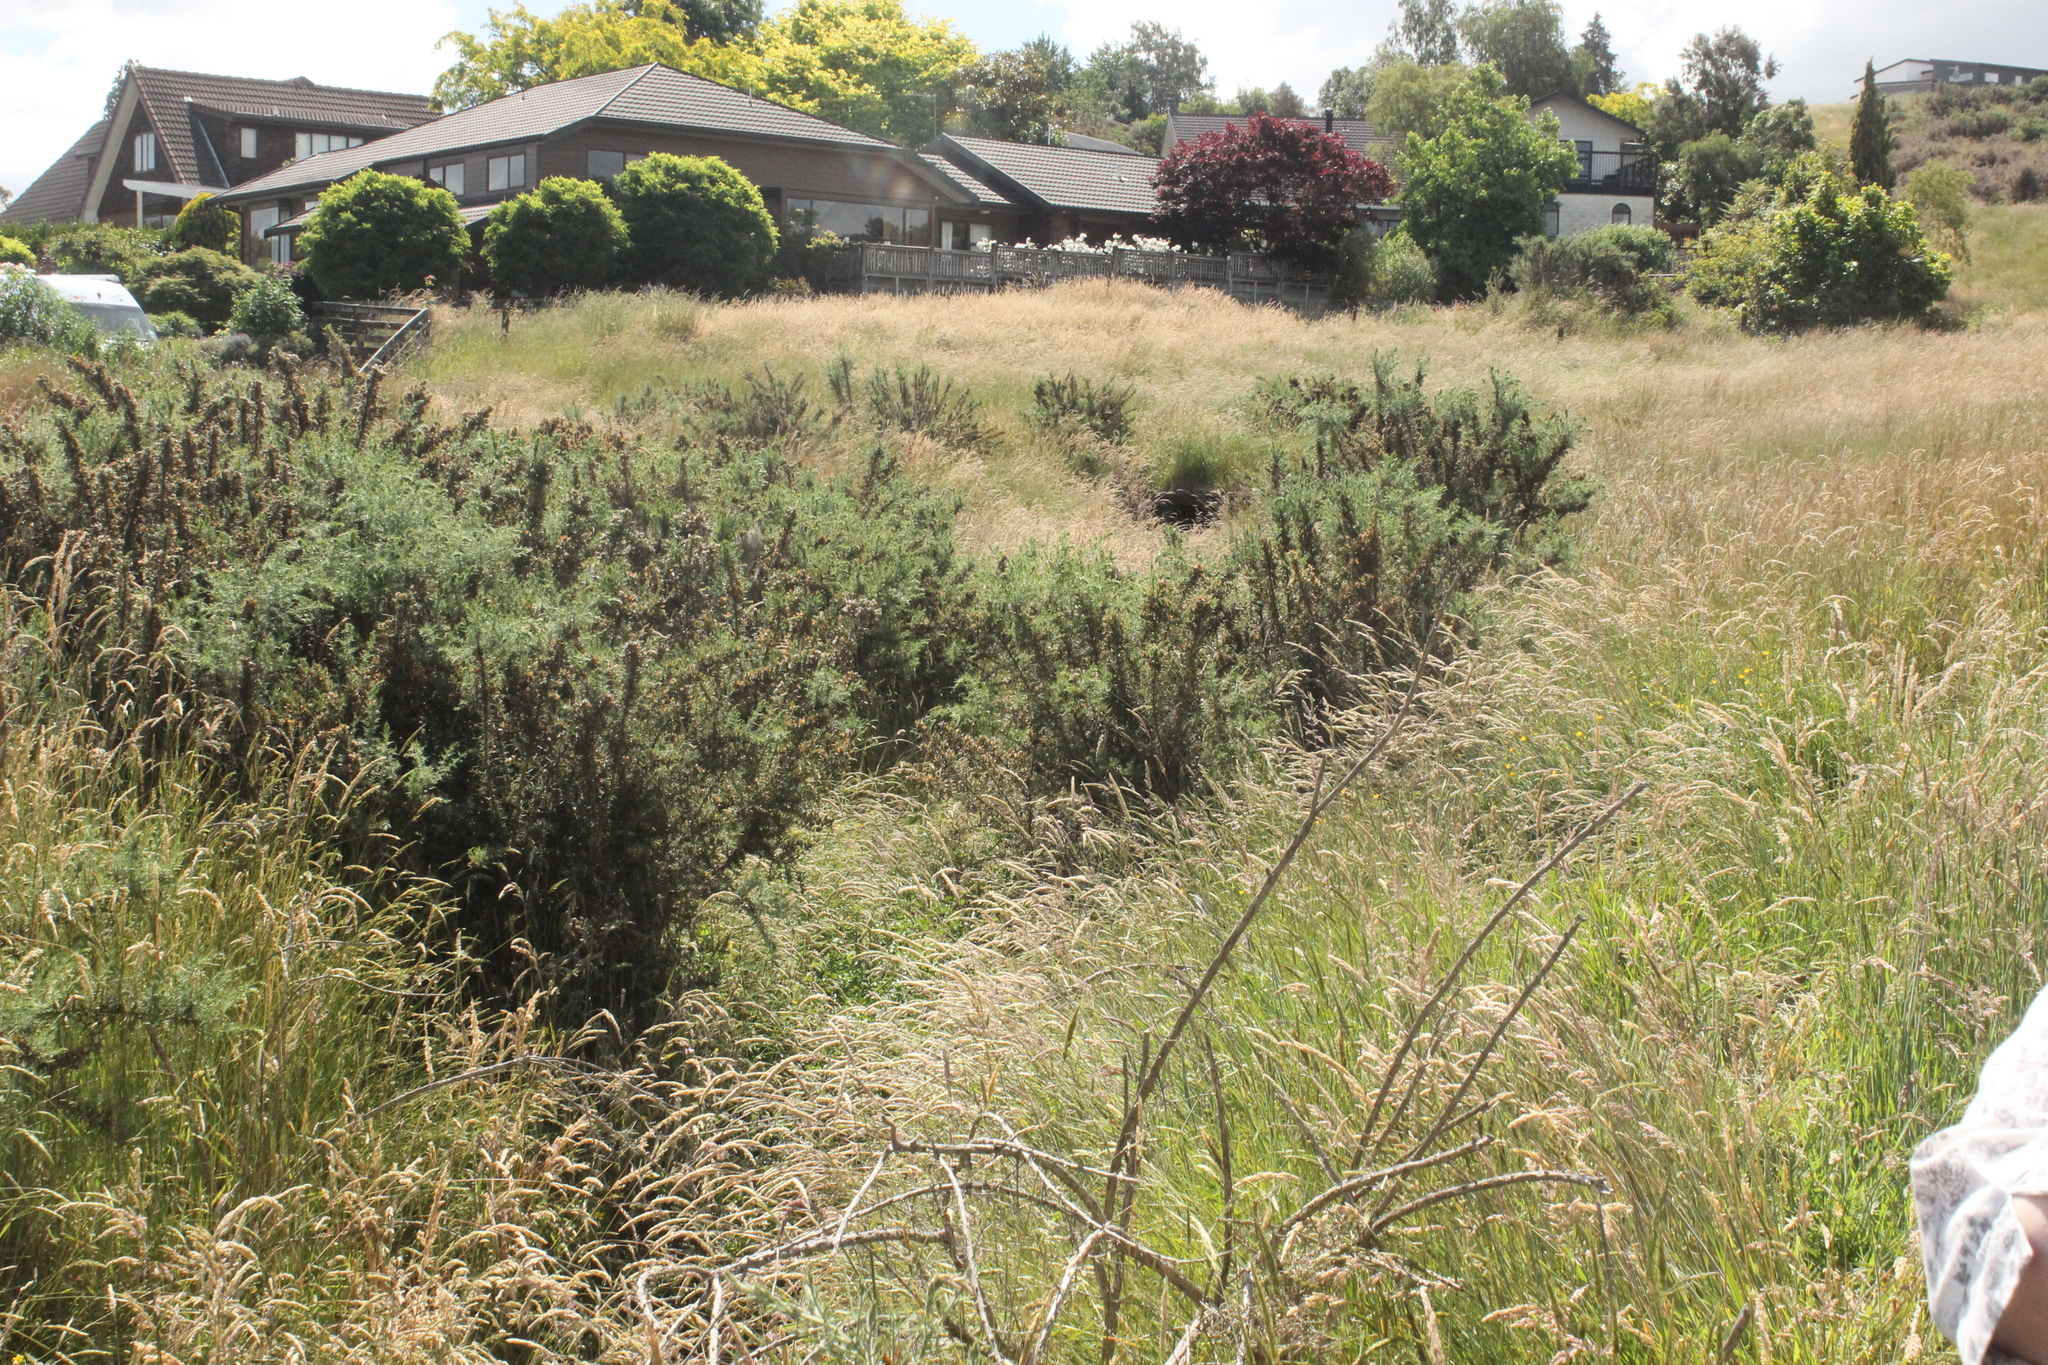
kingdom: Plantae
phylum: Tracheophyta
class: Magnoliopsida
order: Fabales
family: Fabaceae
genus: Ulex
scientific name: Ulex europaeus
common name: Common gorse
